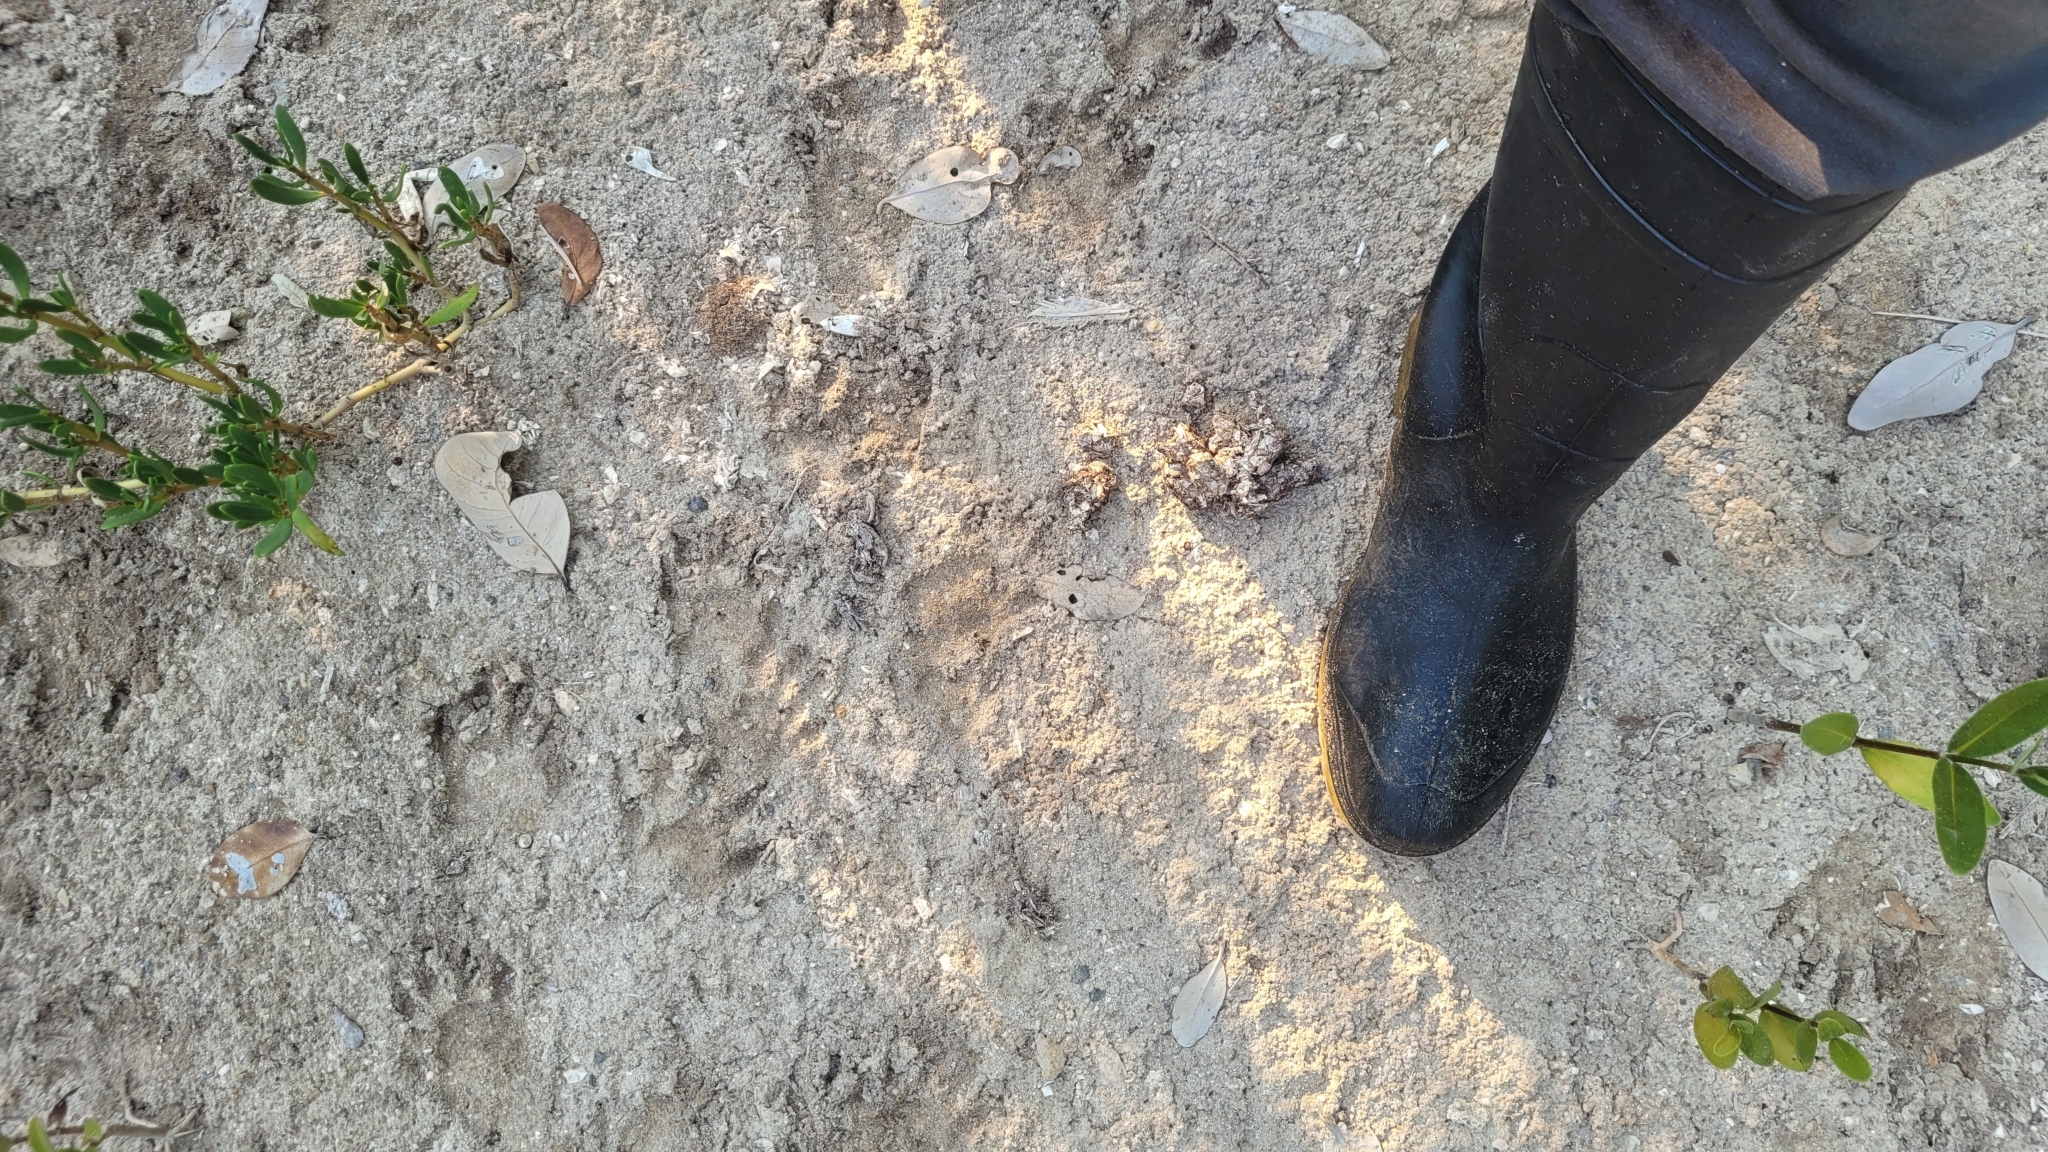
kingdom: Animalia
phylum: Chordata
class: Mammalia
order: Carnivora
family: Procyonidae
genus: Procyon
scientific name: Procyon lotor
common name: Raccoon
